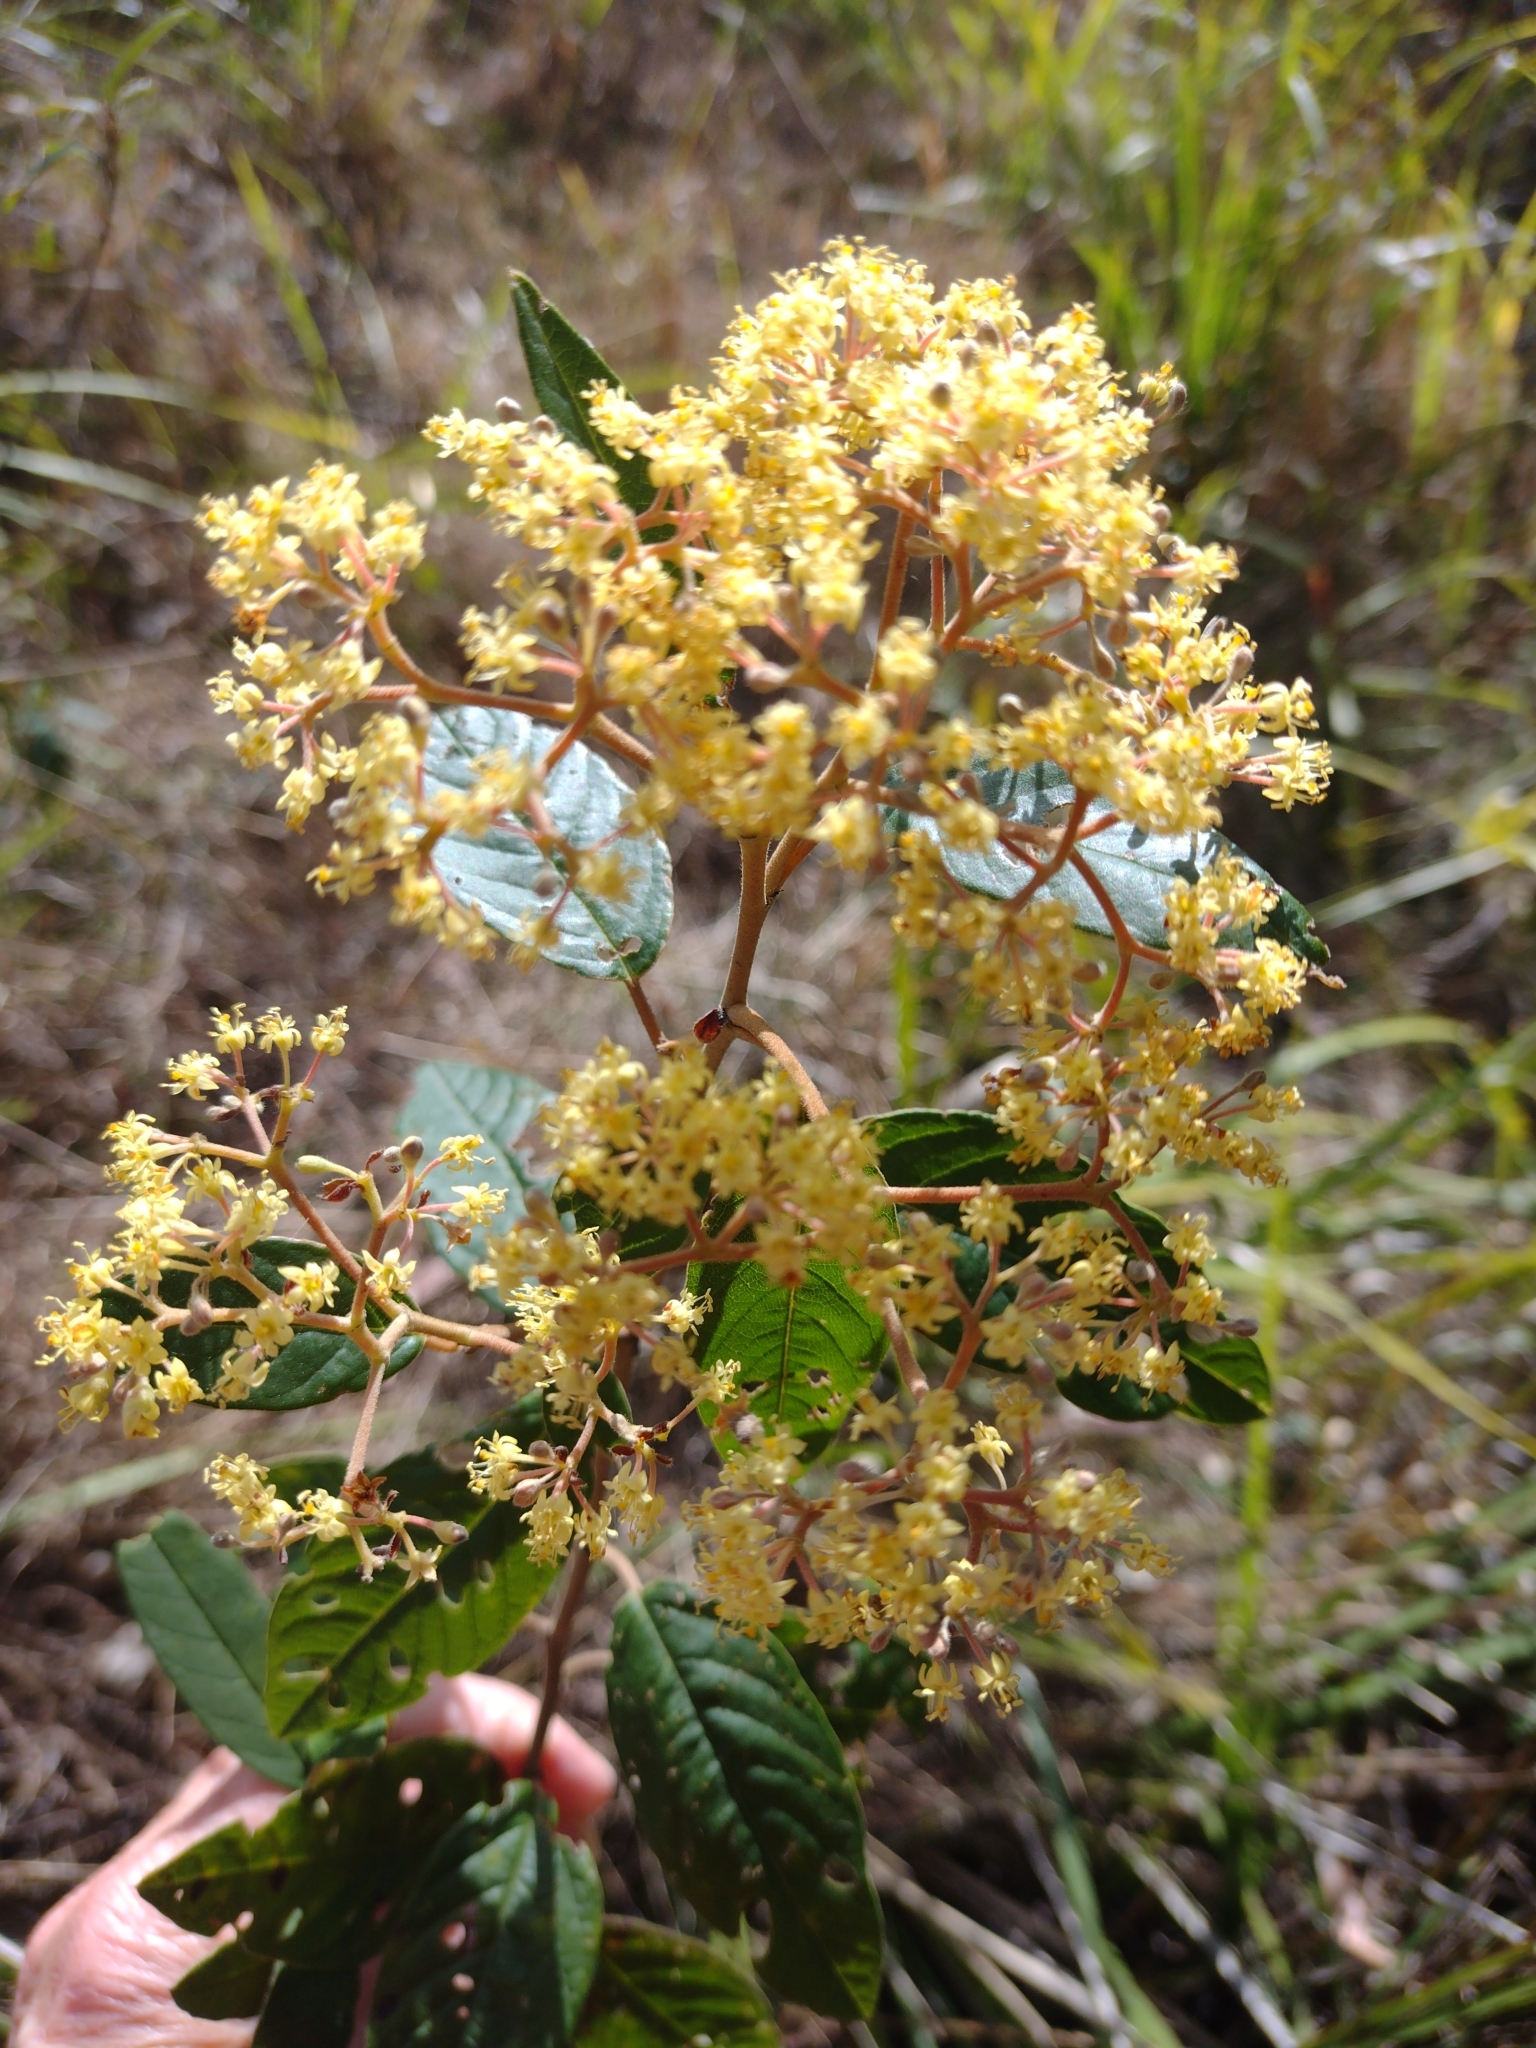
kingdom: Plantae
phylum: Tracheophyta
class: Magnoliopsida
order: Rosales
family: Rhamnaceae
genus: Pomaderris
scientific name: Pomaderris elliptica
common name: Yellow-dogwood
